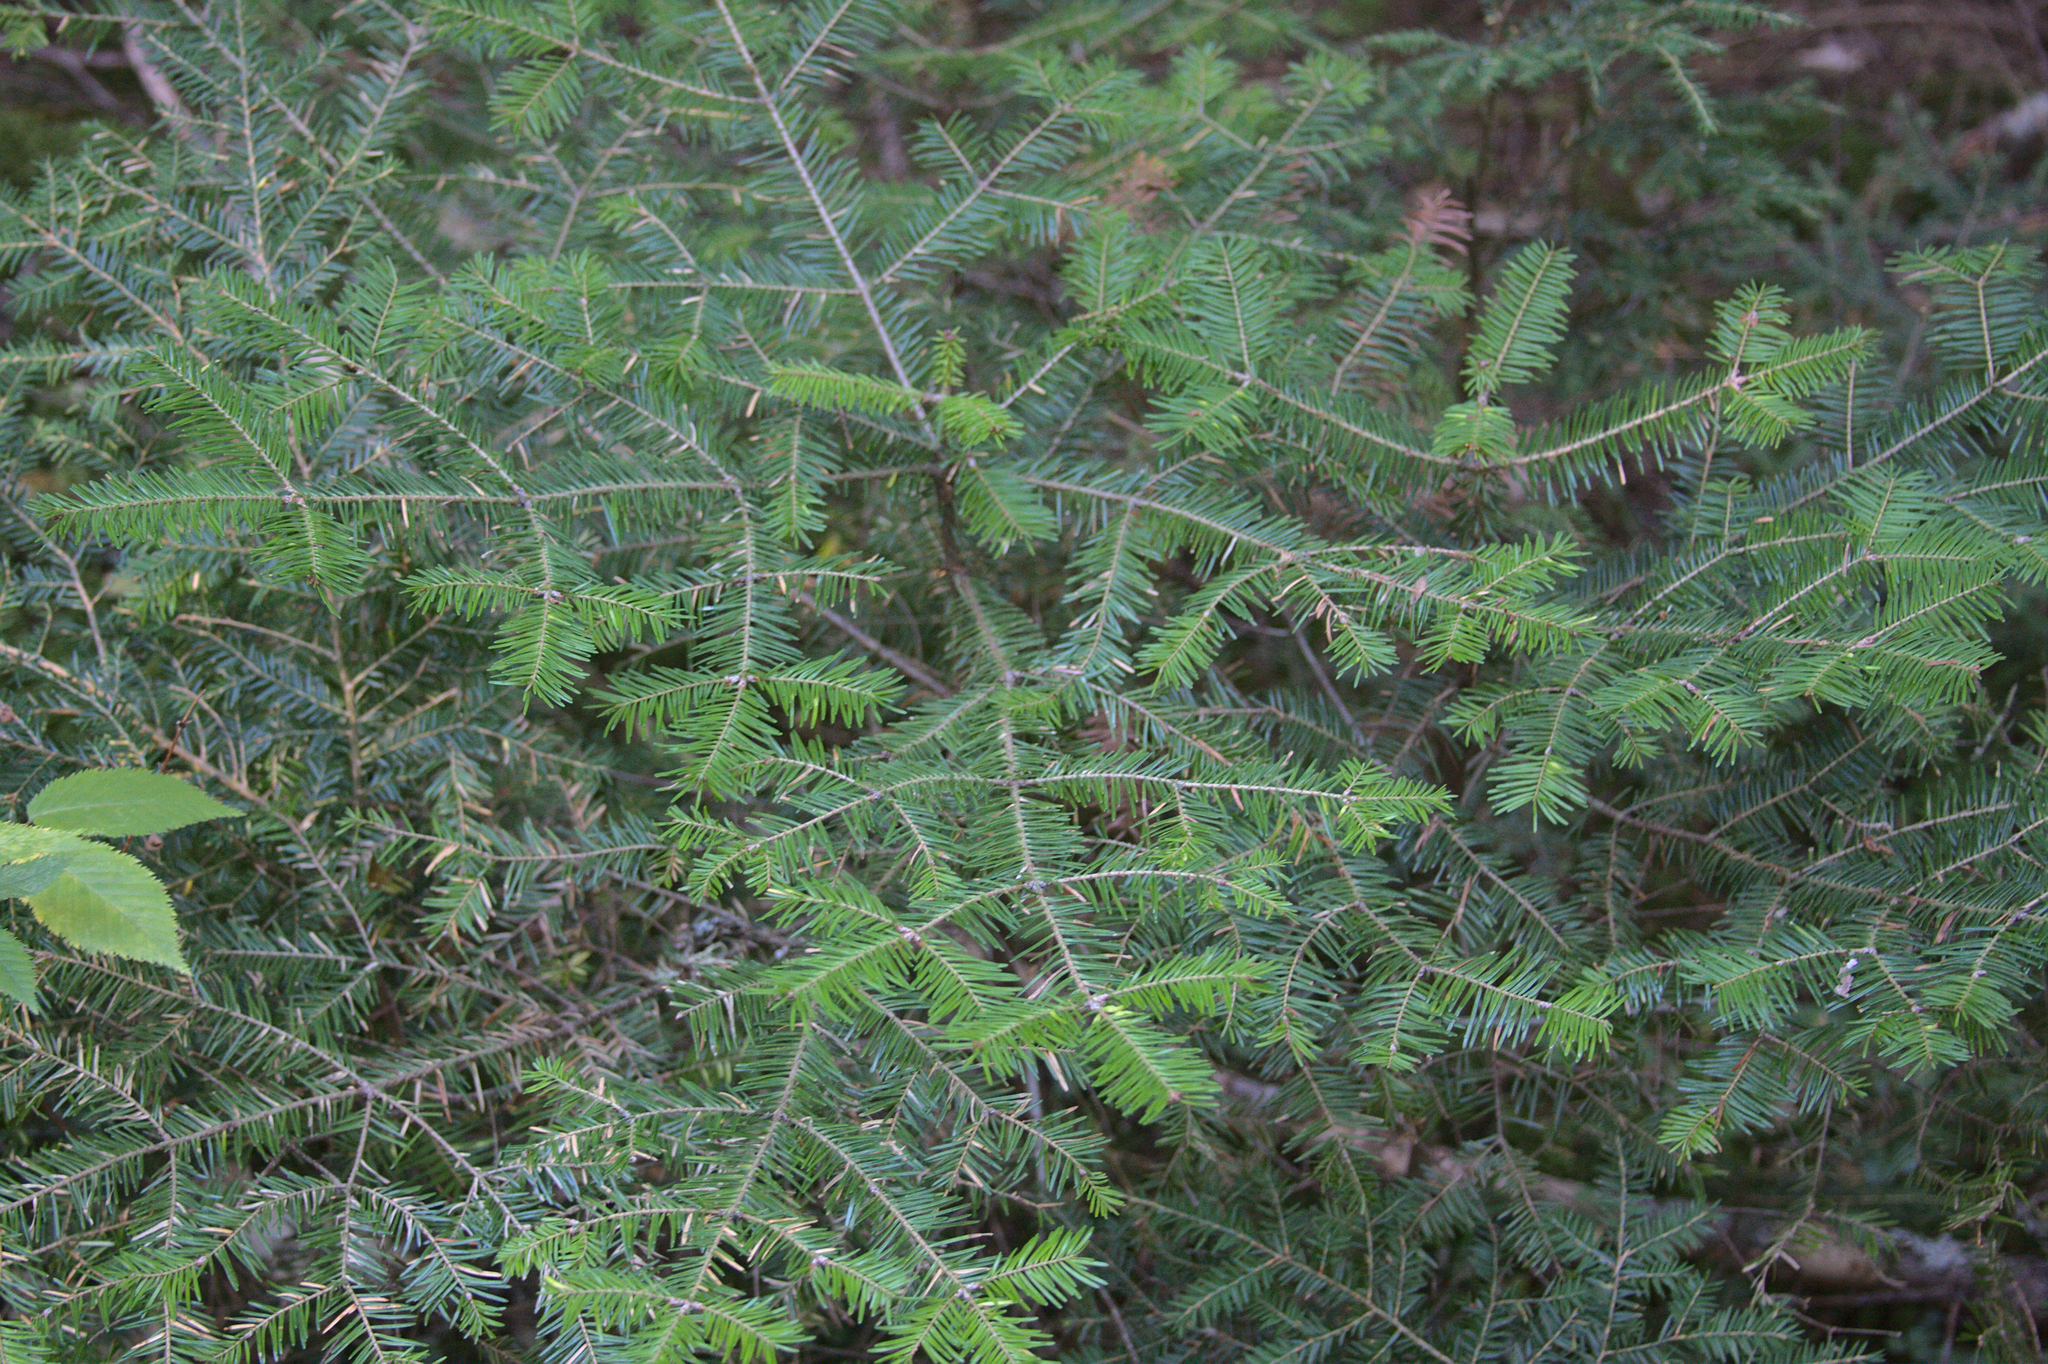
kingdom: Plantae
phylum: Tracheophyta
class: Pinopsida
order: Pinales
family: Pinaceae
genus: Abies
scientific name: Abies balsamea
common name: Balsam fir
